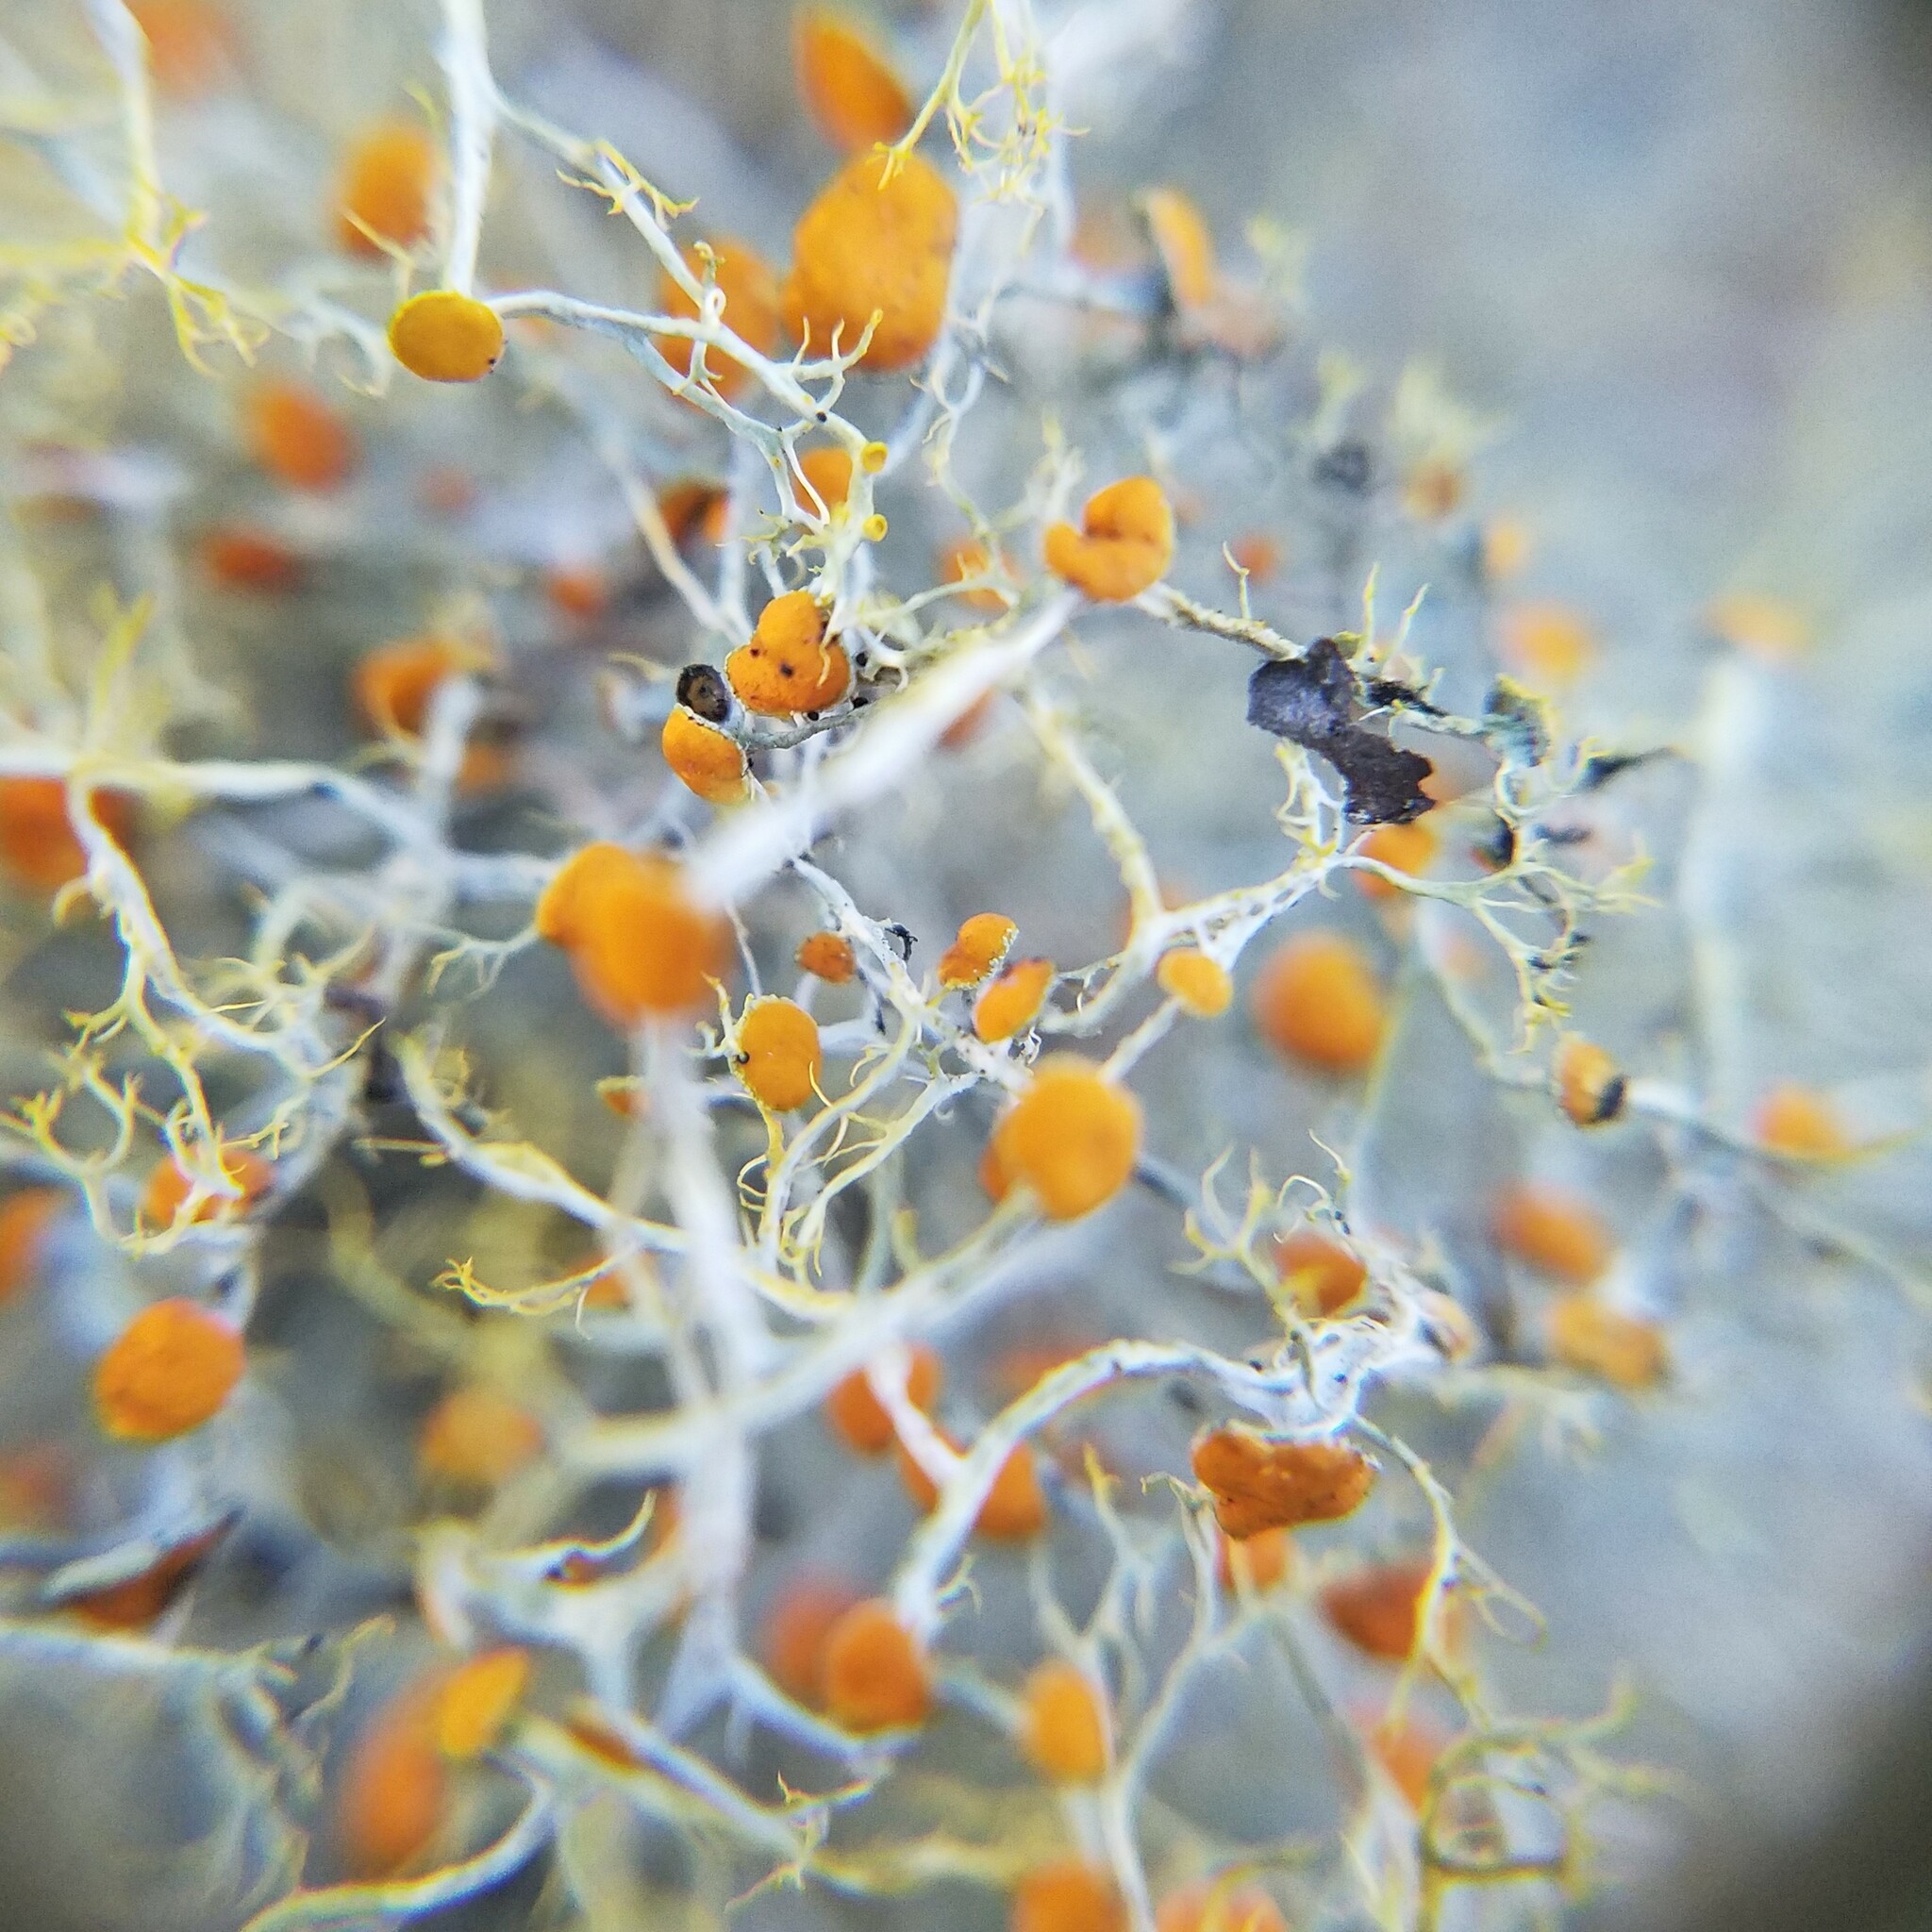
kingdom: Fungi
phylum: Ascomycota
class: Lecanoromycetes
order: Teloschistales
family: Teloschistaceae
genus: Teloschistes
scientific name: Teloschistes exilis
